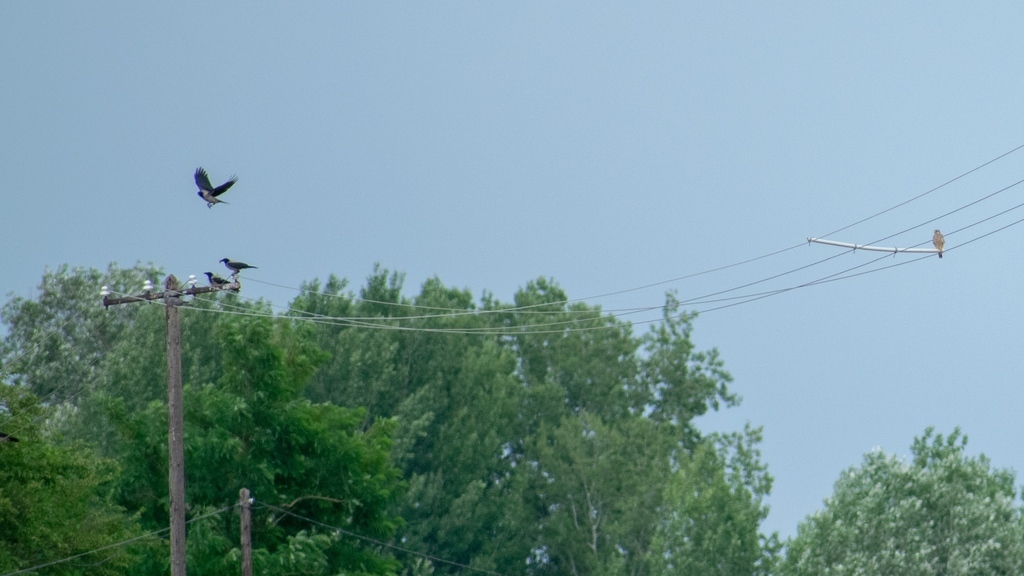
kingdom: Animalia
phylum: Chordata
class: Aves
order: Falconiformes
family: Falconidae
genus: Falco
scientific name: Falco tinnunculus
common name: Common kestrel
